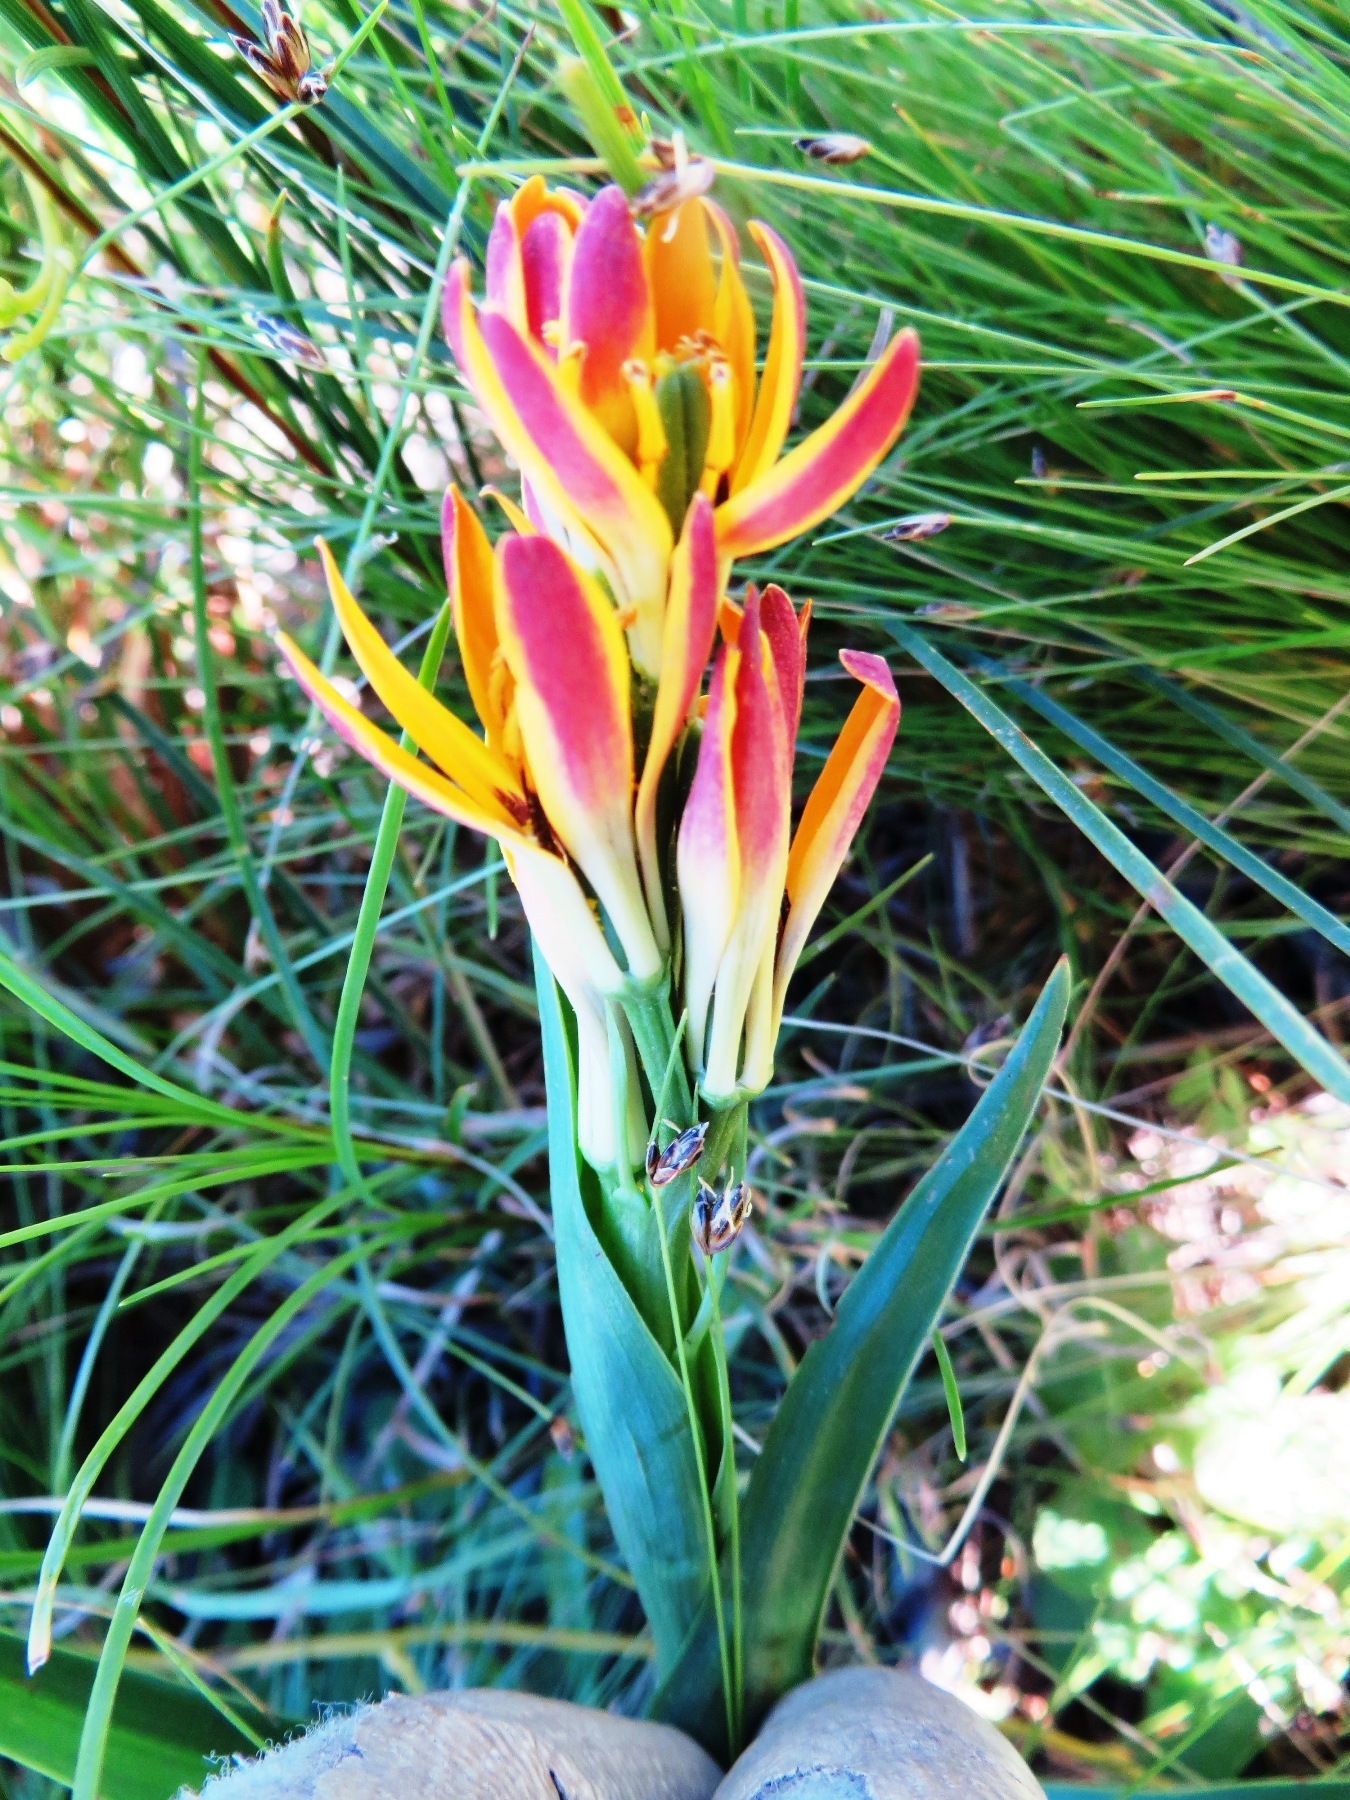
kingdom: Plantae
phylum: Tracheophyta
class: Liliopsida
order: Liliales
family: Colchicaceae
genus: Baeometra
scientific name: Baeometra uniflora
